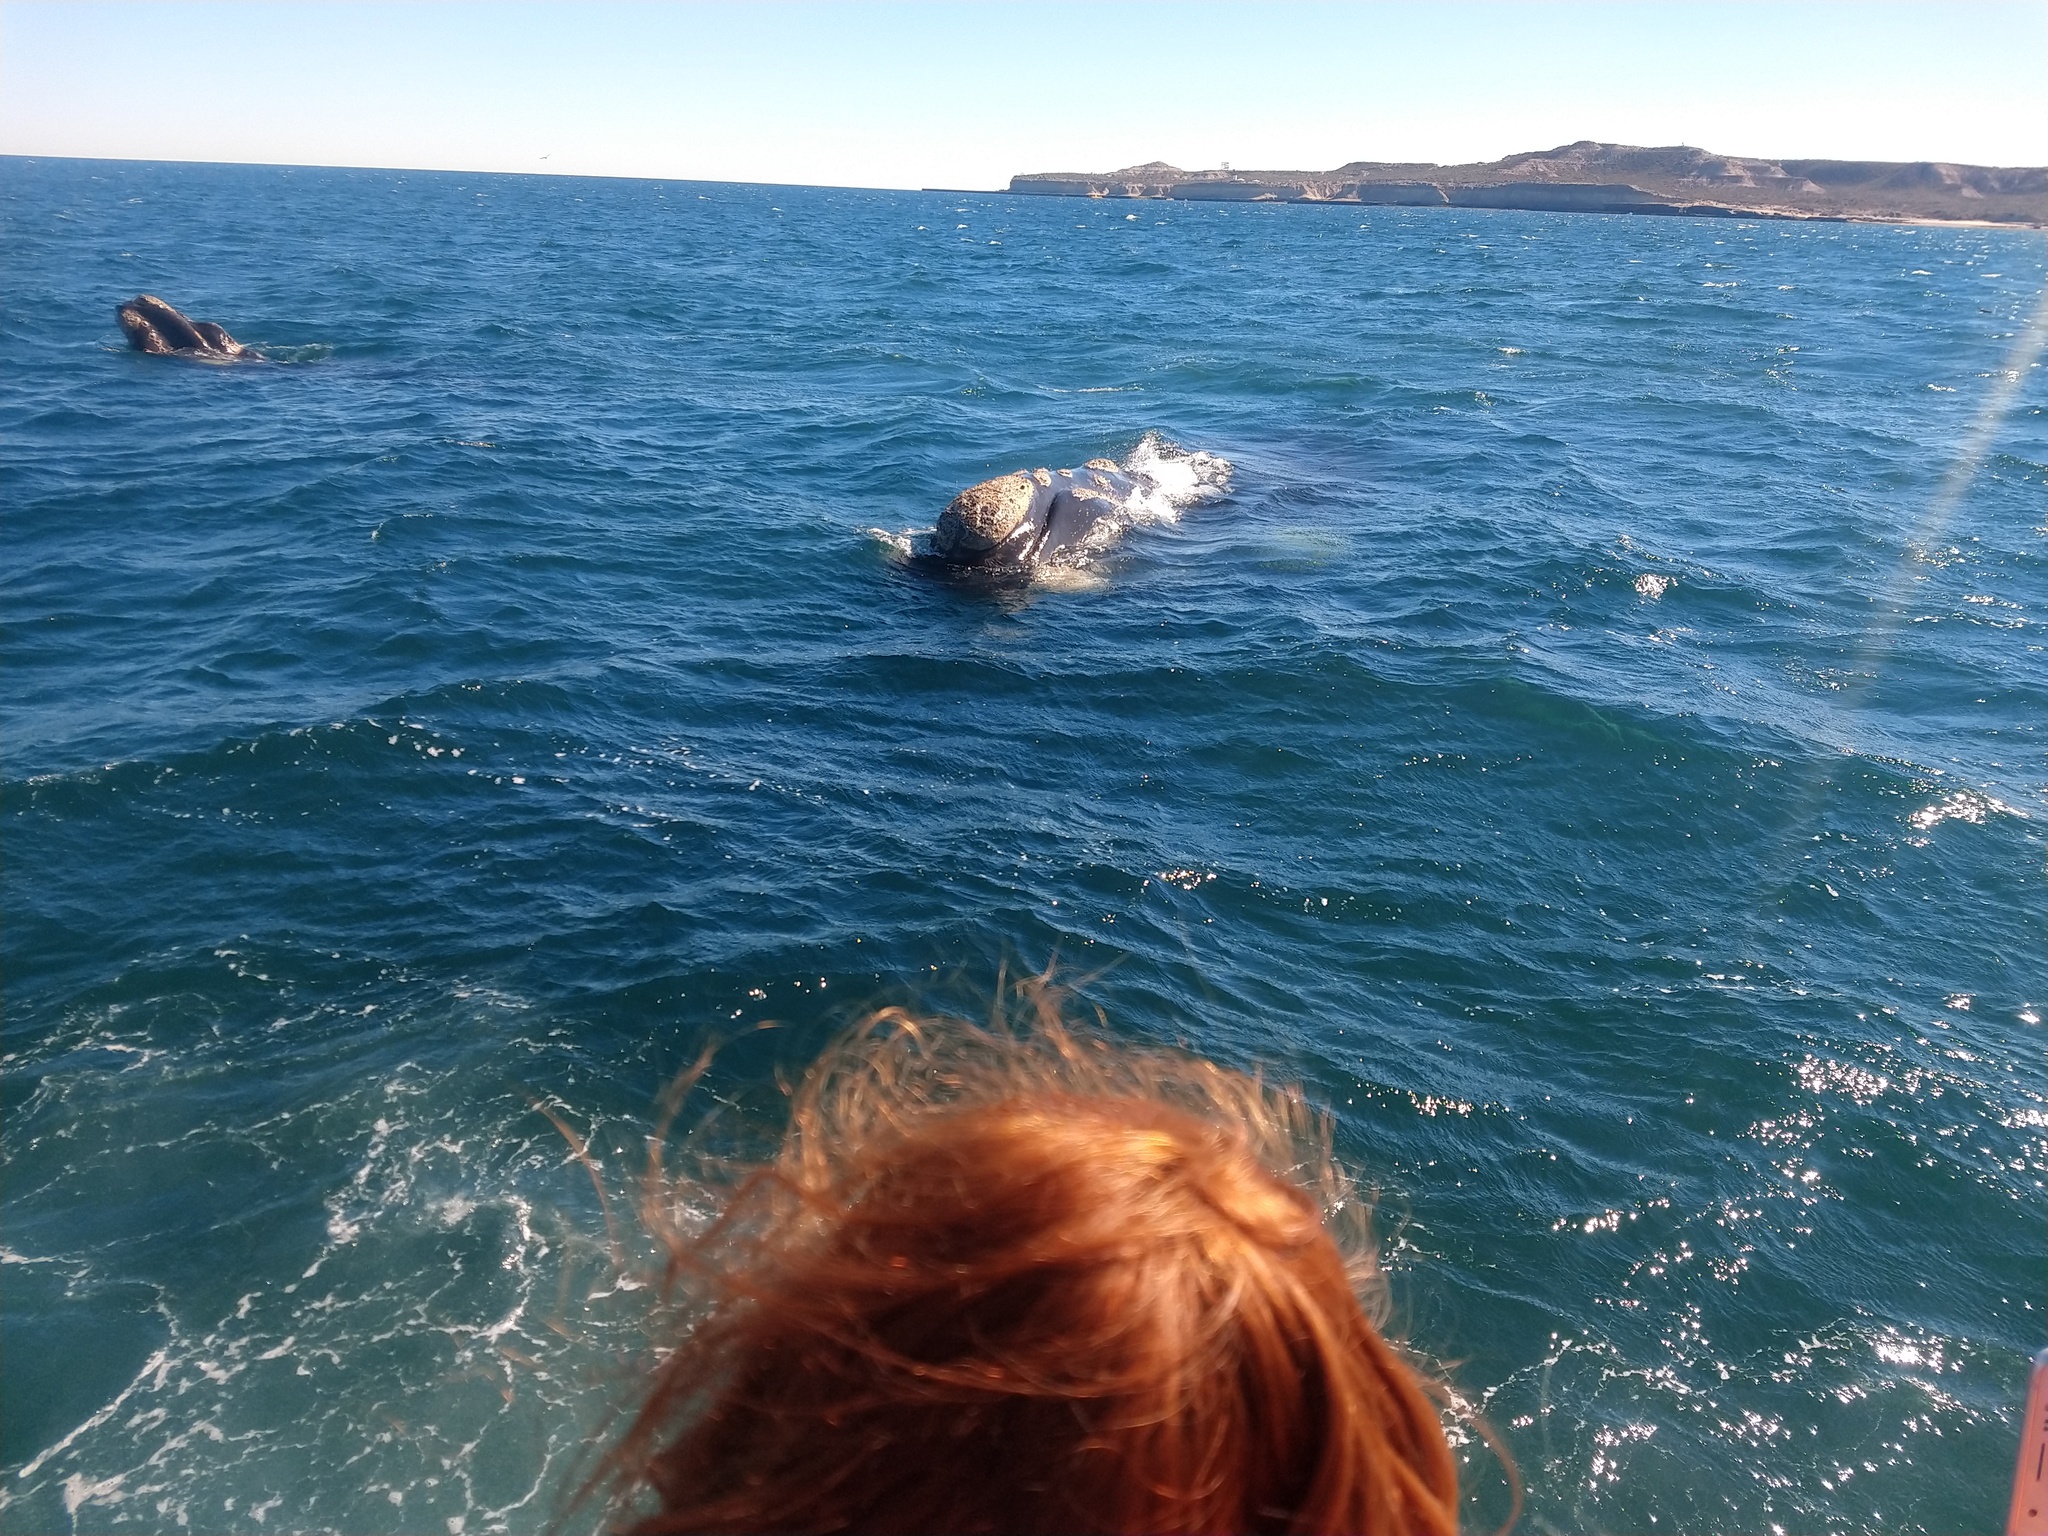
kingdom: Animalia
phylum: Chordata
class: Mammalia
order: Cetacea
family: Balaenidae
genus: Eubalaena
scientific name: Eubalaena australis
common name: Southern right whale
